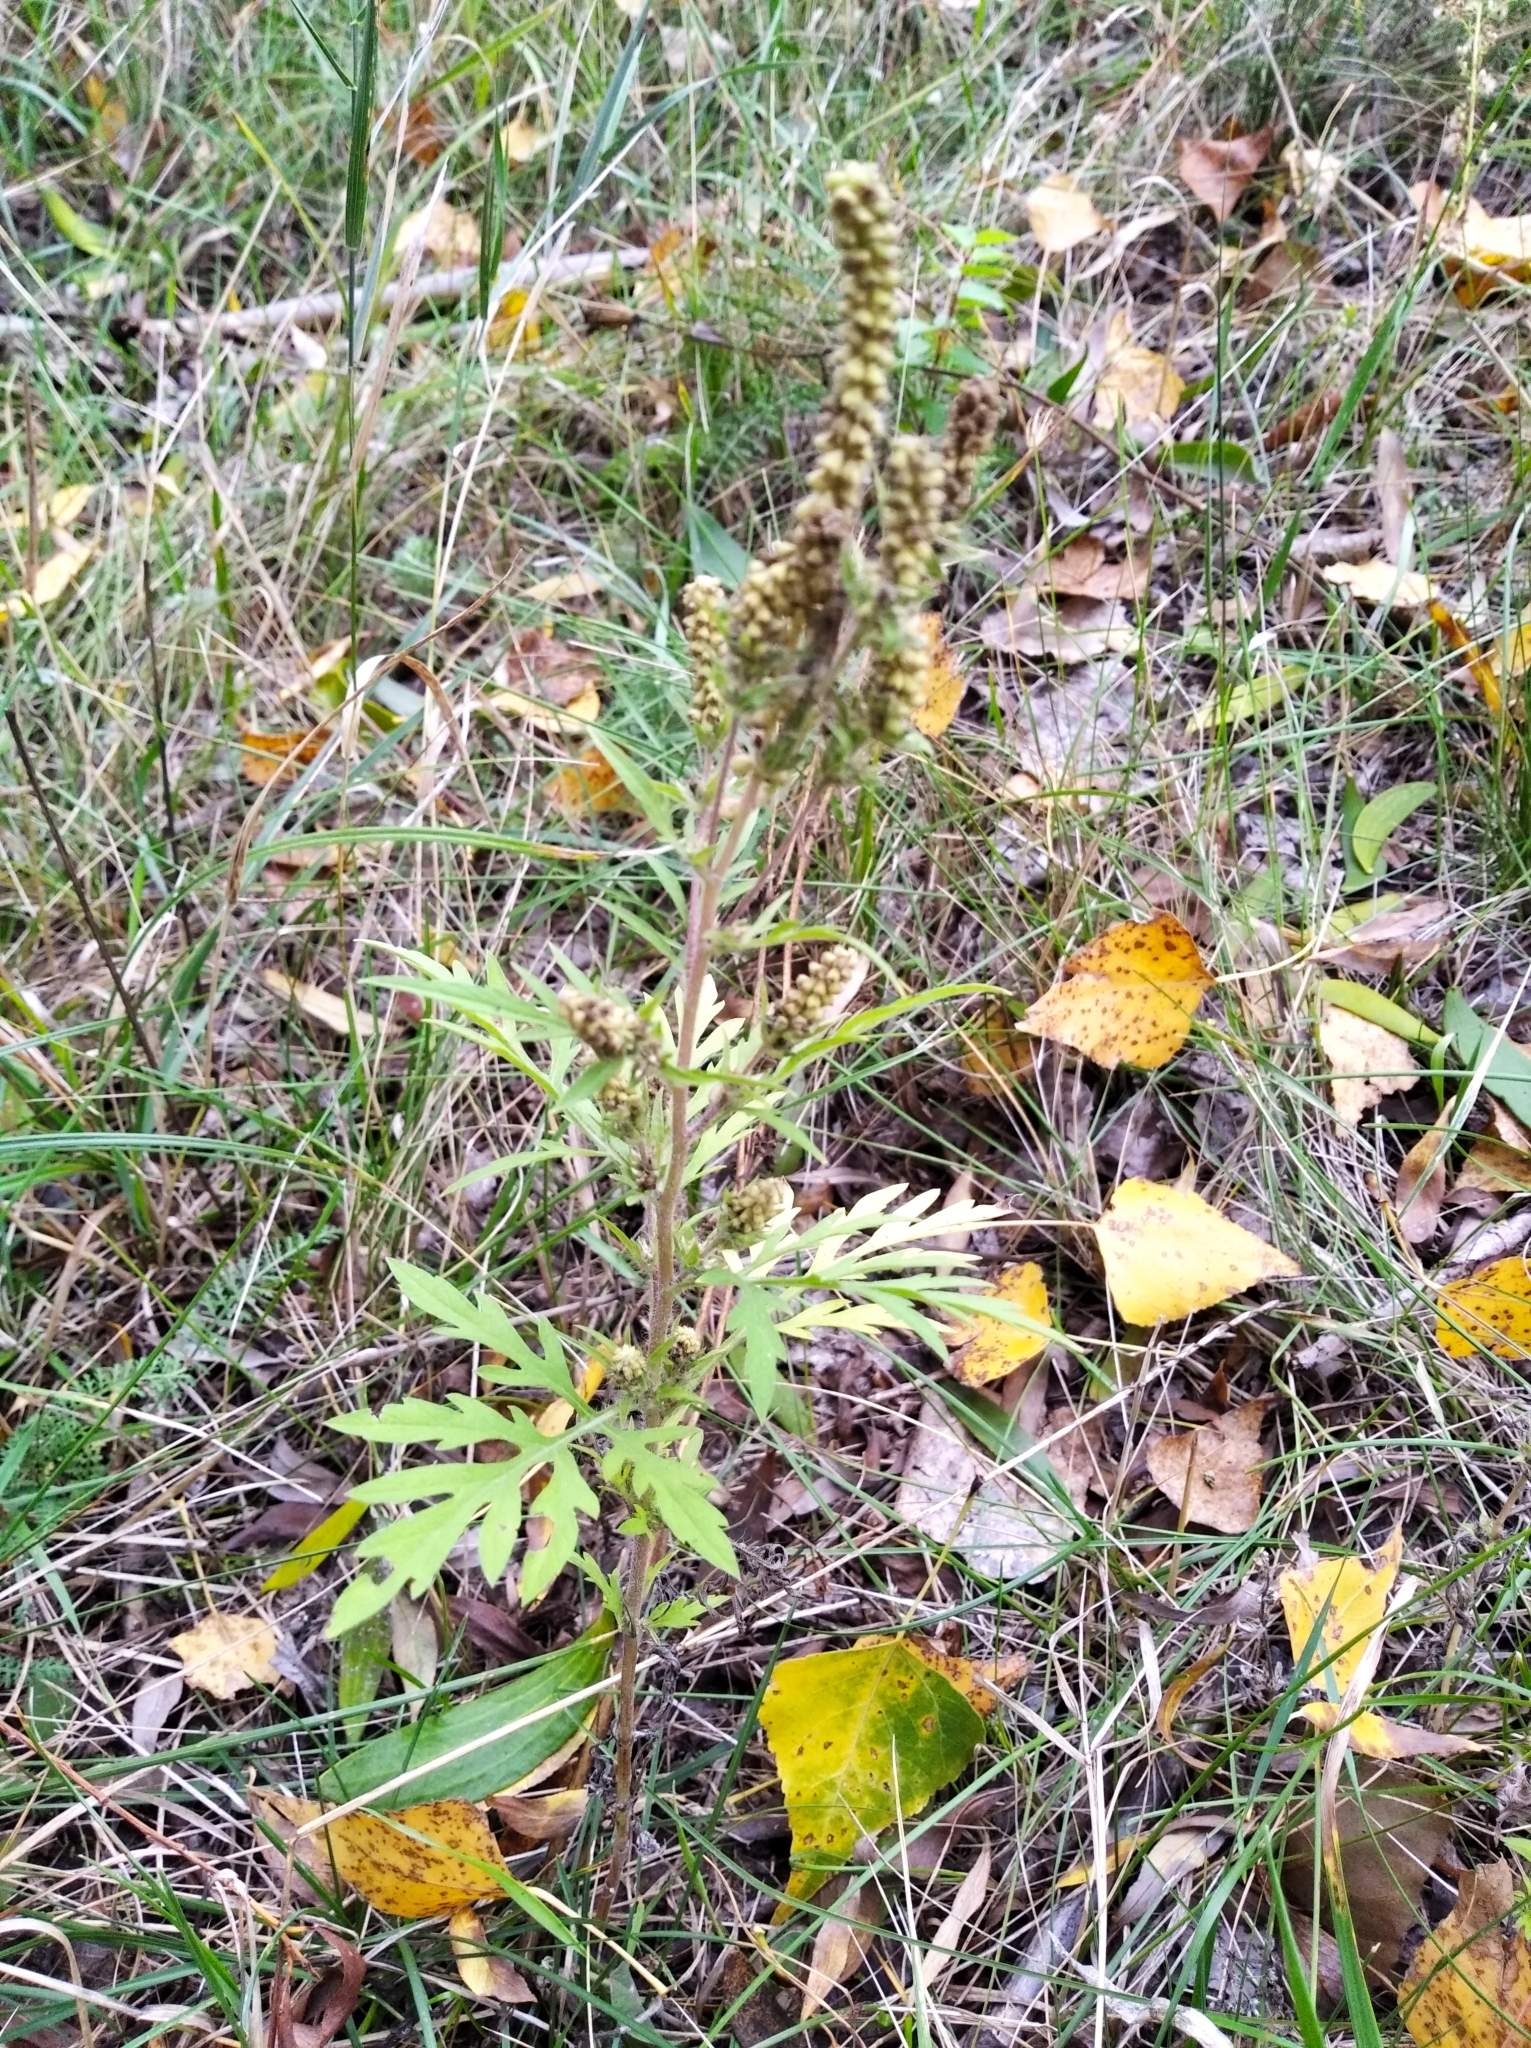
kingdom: Plantae
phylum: Tracheophyta
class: Magnoliopsida
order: Asterales
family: Asteraceae
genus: Ambrosia
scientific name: Ambrosia artemisiifolia
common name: Annual ragweed
